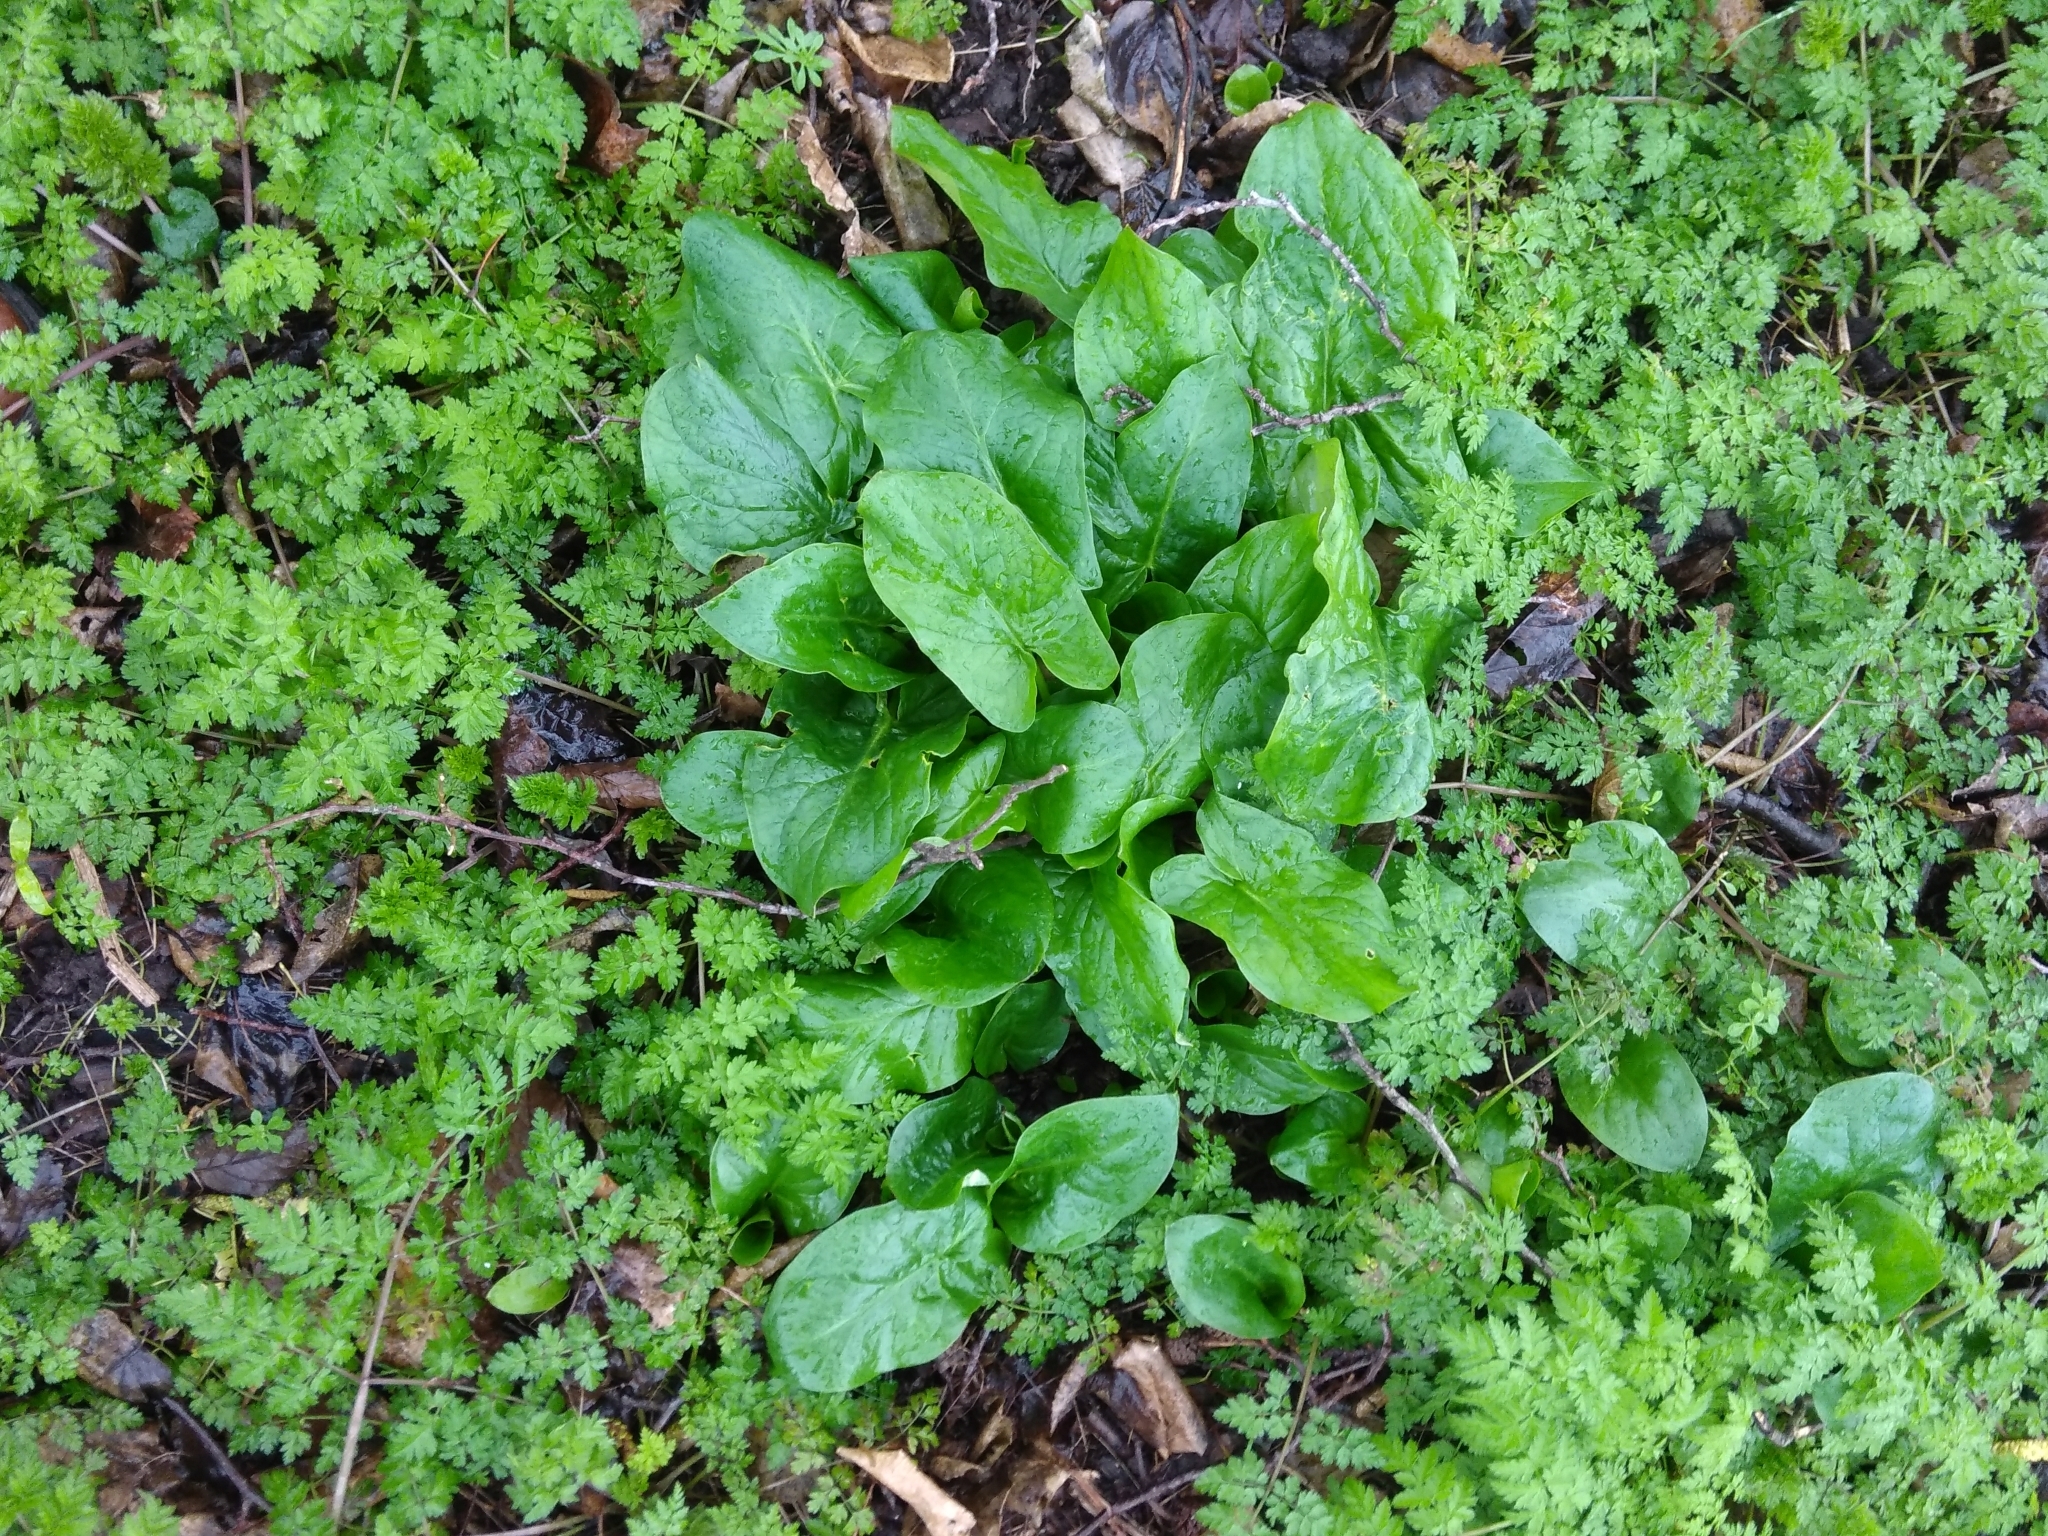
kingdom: Plantae
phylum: Tracheophyta
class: Liliopsida
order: Alismatales
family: Araceae
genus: Arum
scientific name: Arum maculatum
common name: Lords-and-ladies
